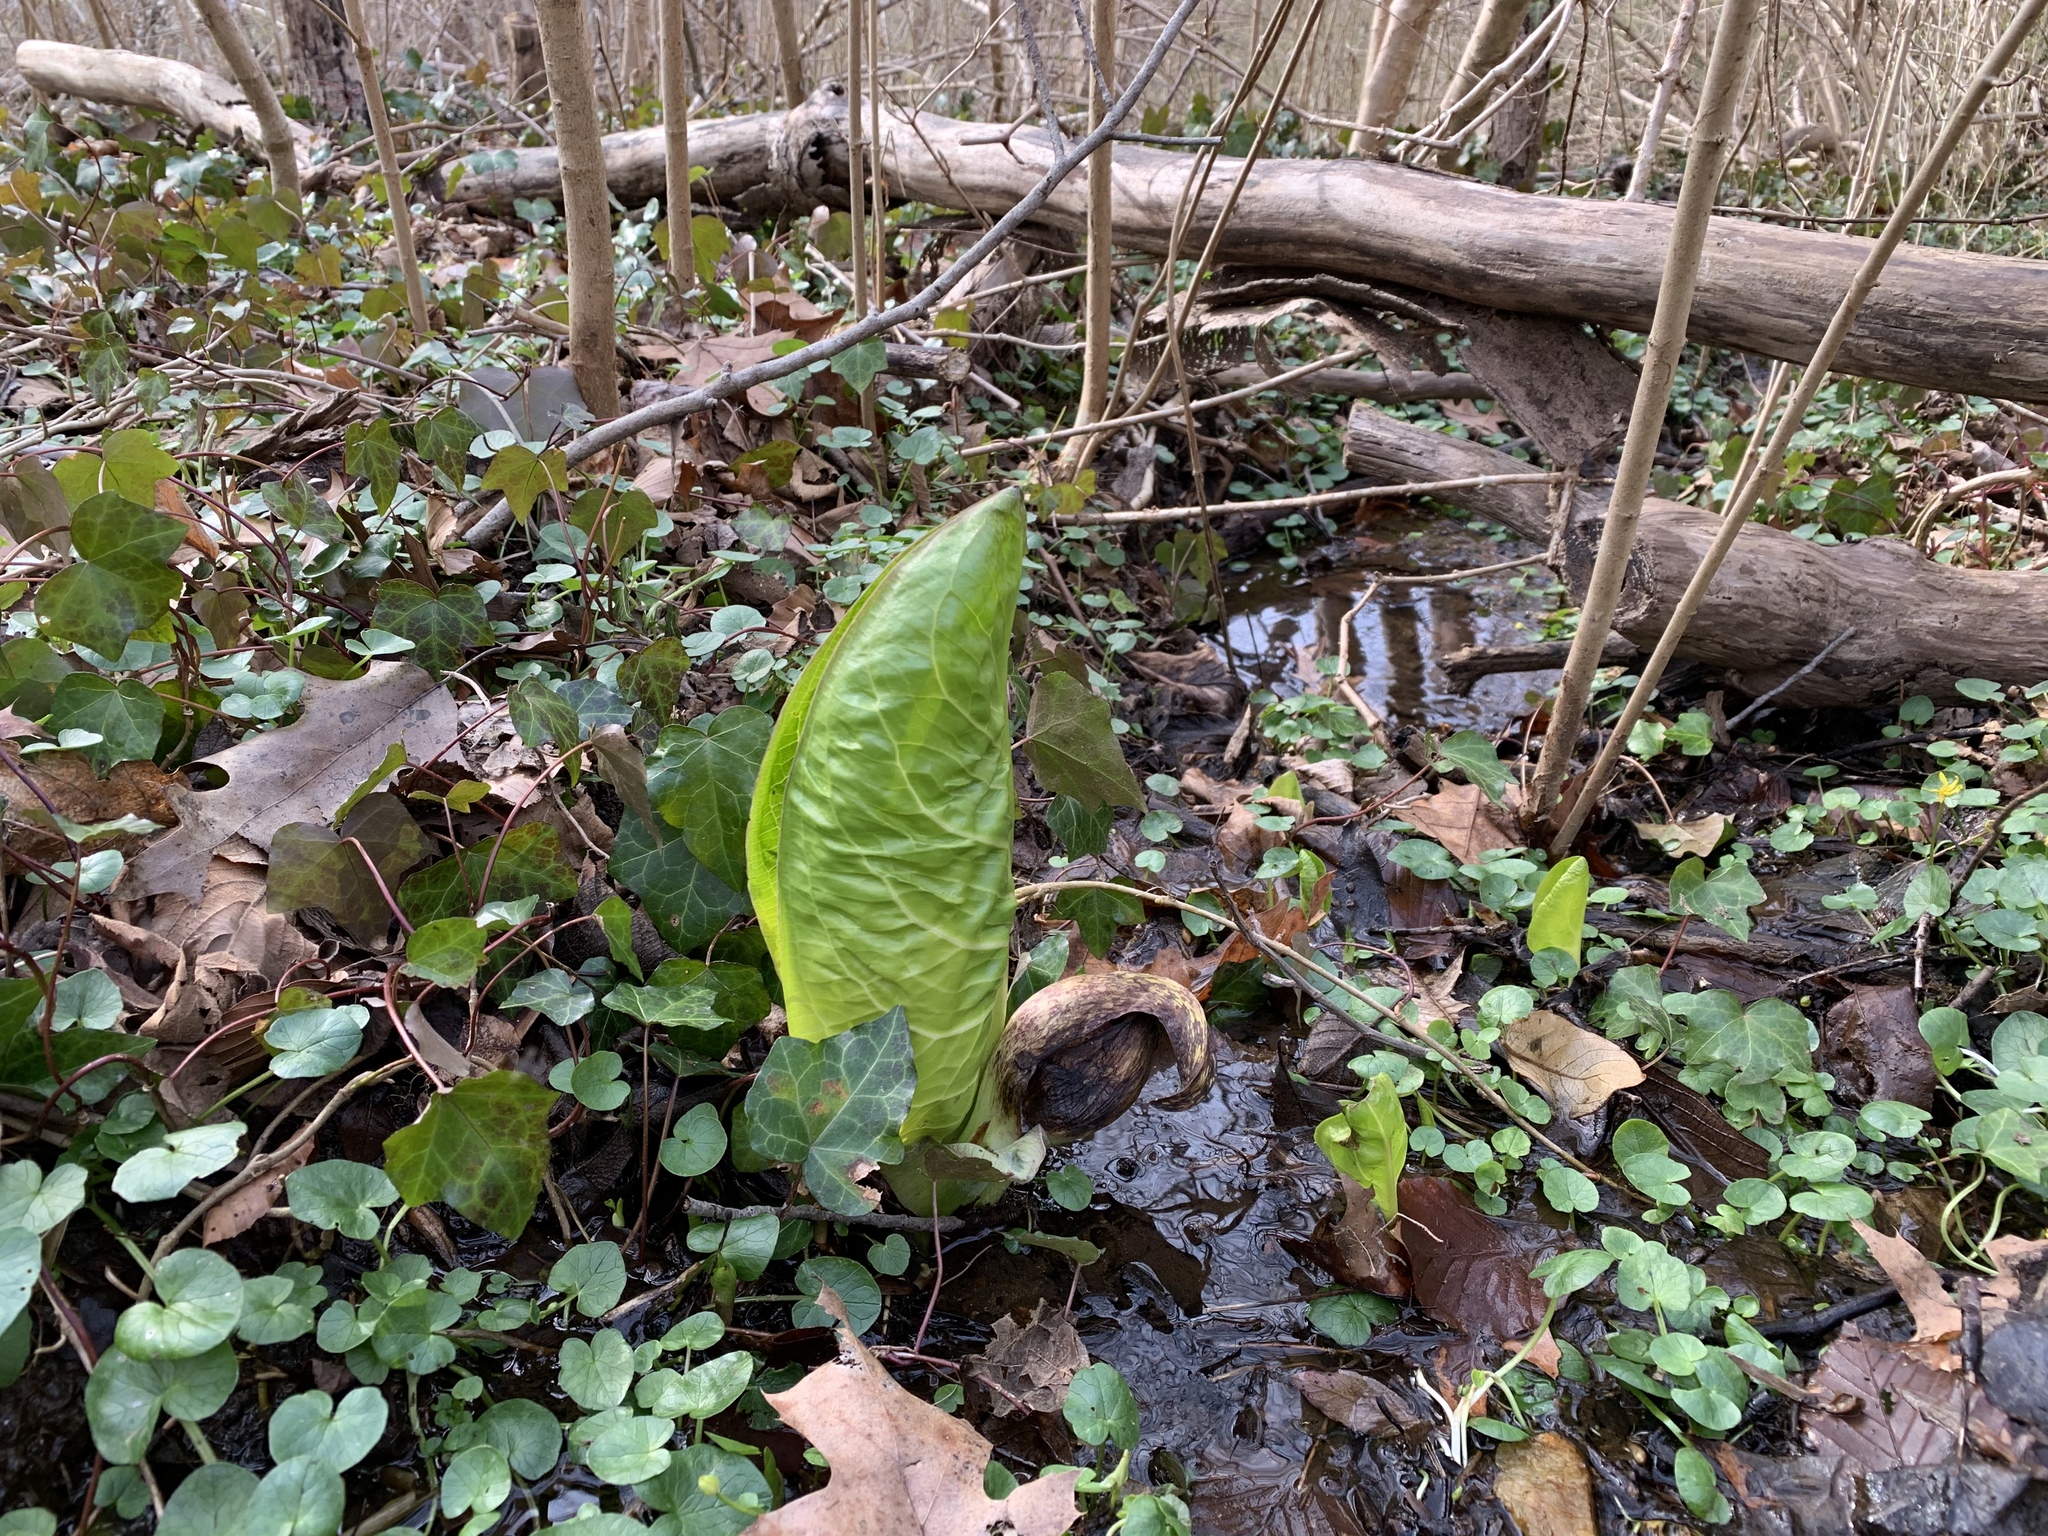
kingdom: Plantae
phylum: Tracheophyta
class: Liliopsida
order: Alismatales
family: Araceae
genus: Symplocarpus
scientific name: Symplocarpus foetidus
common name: Eastern skunk cabbage
